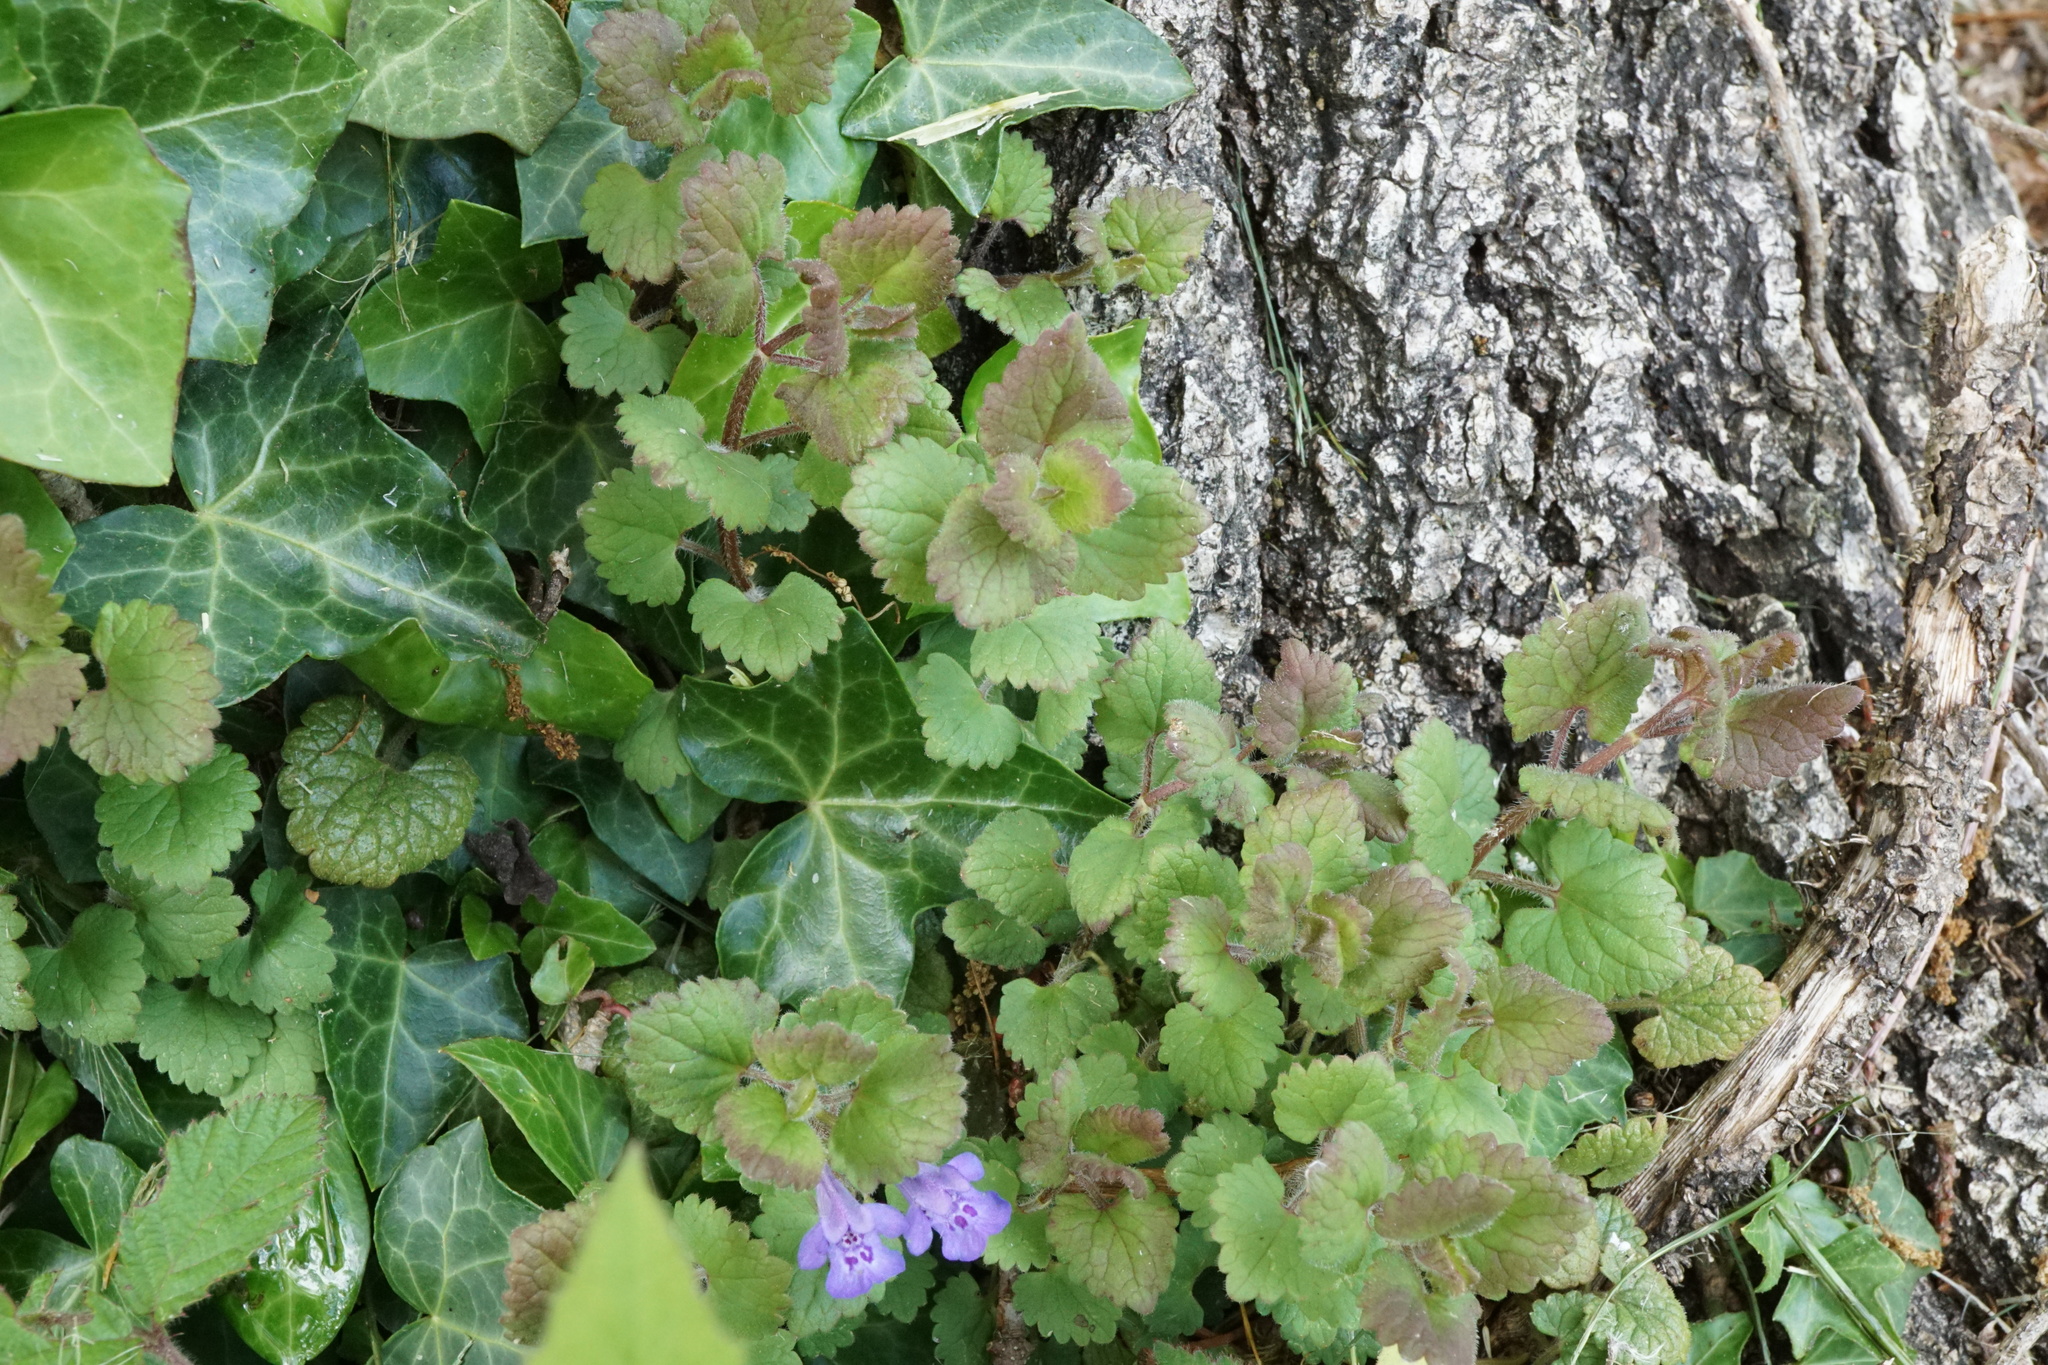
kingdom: Plantae
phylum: Tracheophyta
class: Magnoliopsida
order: Lamiales
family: Lamiaceae
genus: Glechoma
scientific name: Glechoma hederacea
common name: Ground ivy
